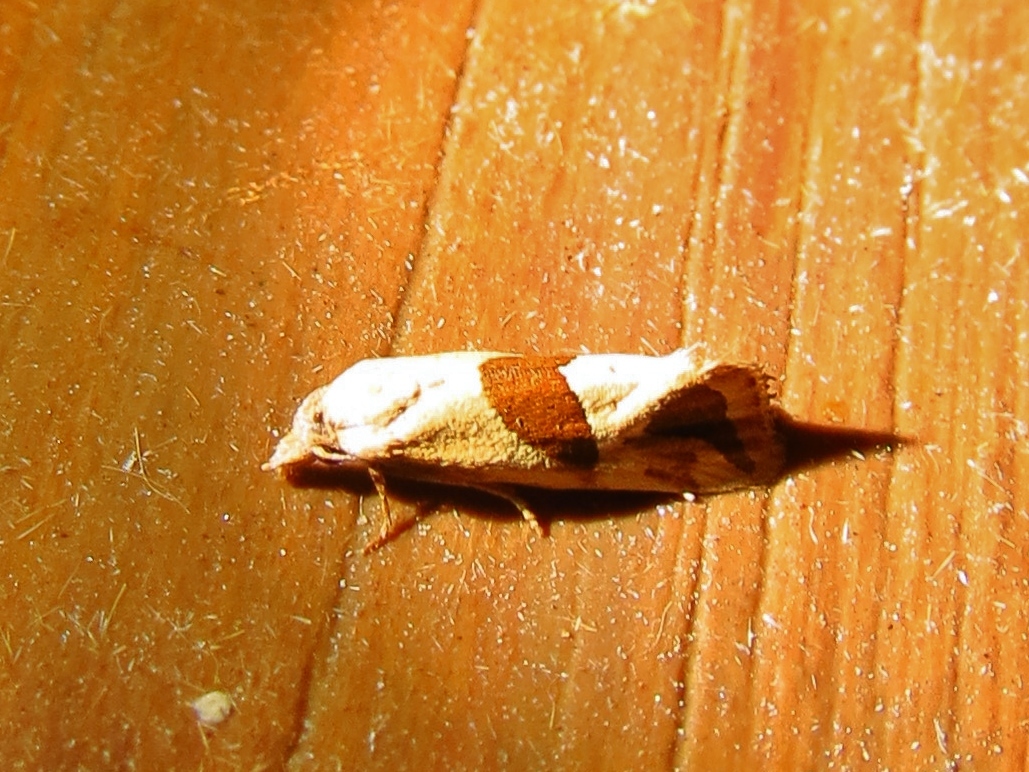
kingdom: Animalia
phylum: Arthropoda
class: Insecta
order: Lepidoptera
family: Tortricidae
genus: Eugnosta
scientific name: Eugnosta sartana
